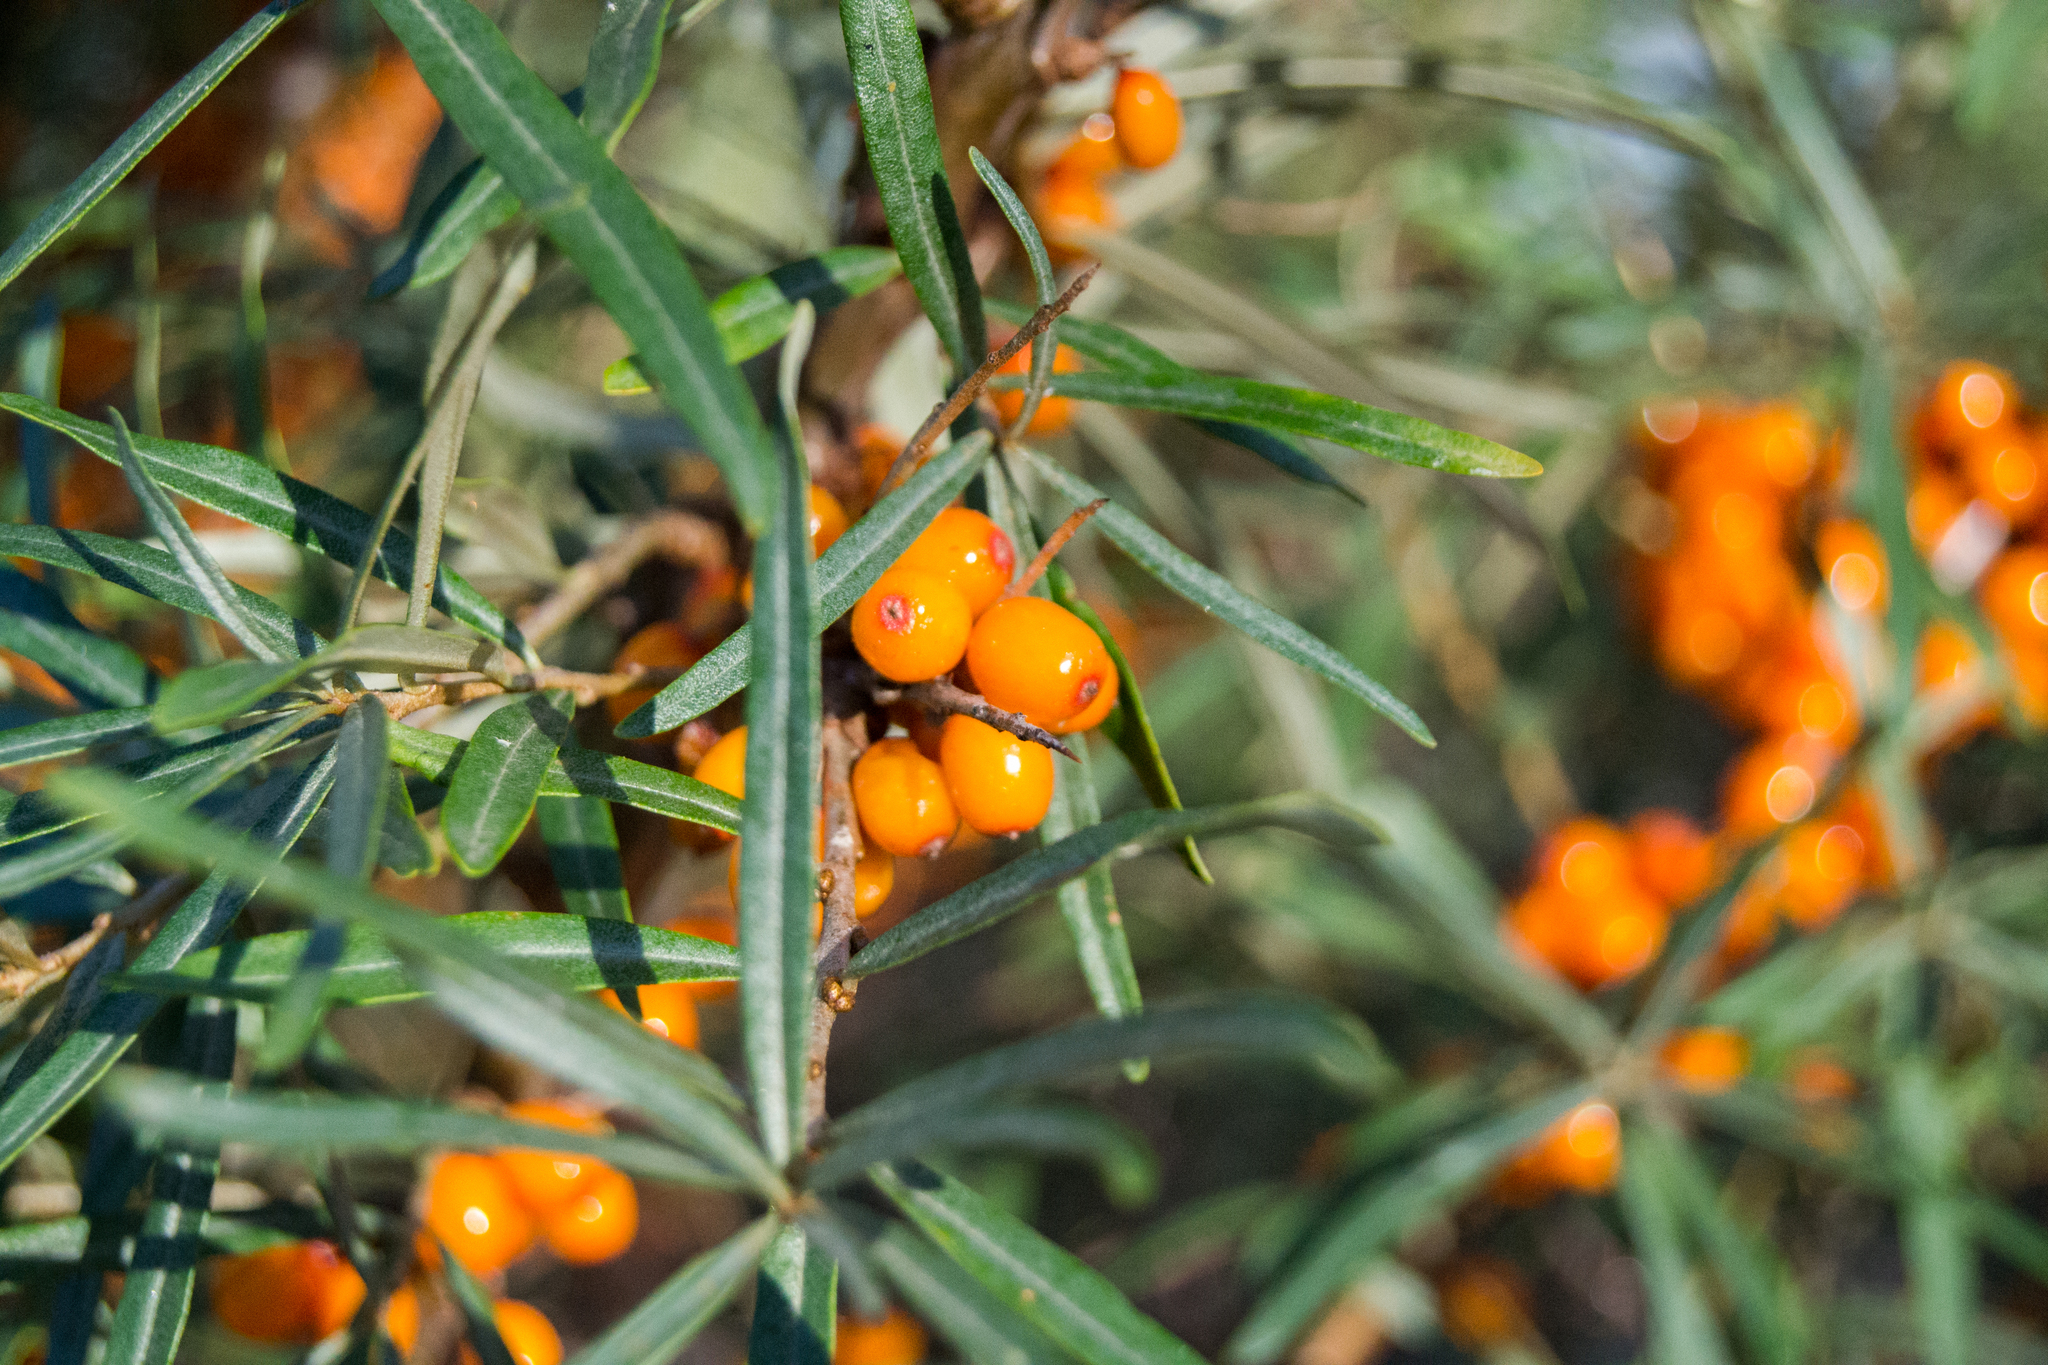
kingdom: Plantae
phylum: Tracheophyta
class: Magnoliopsida
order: Rosales
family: Elaeagnaceae
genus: Hippophae
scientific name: Hippophae rhamnoides
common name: Sea-buckthorn
